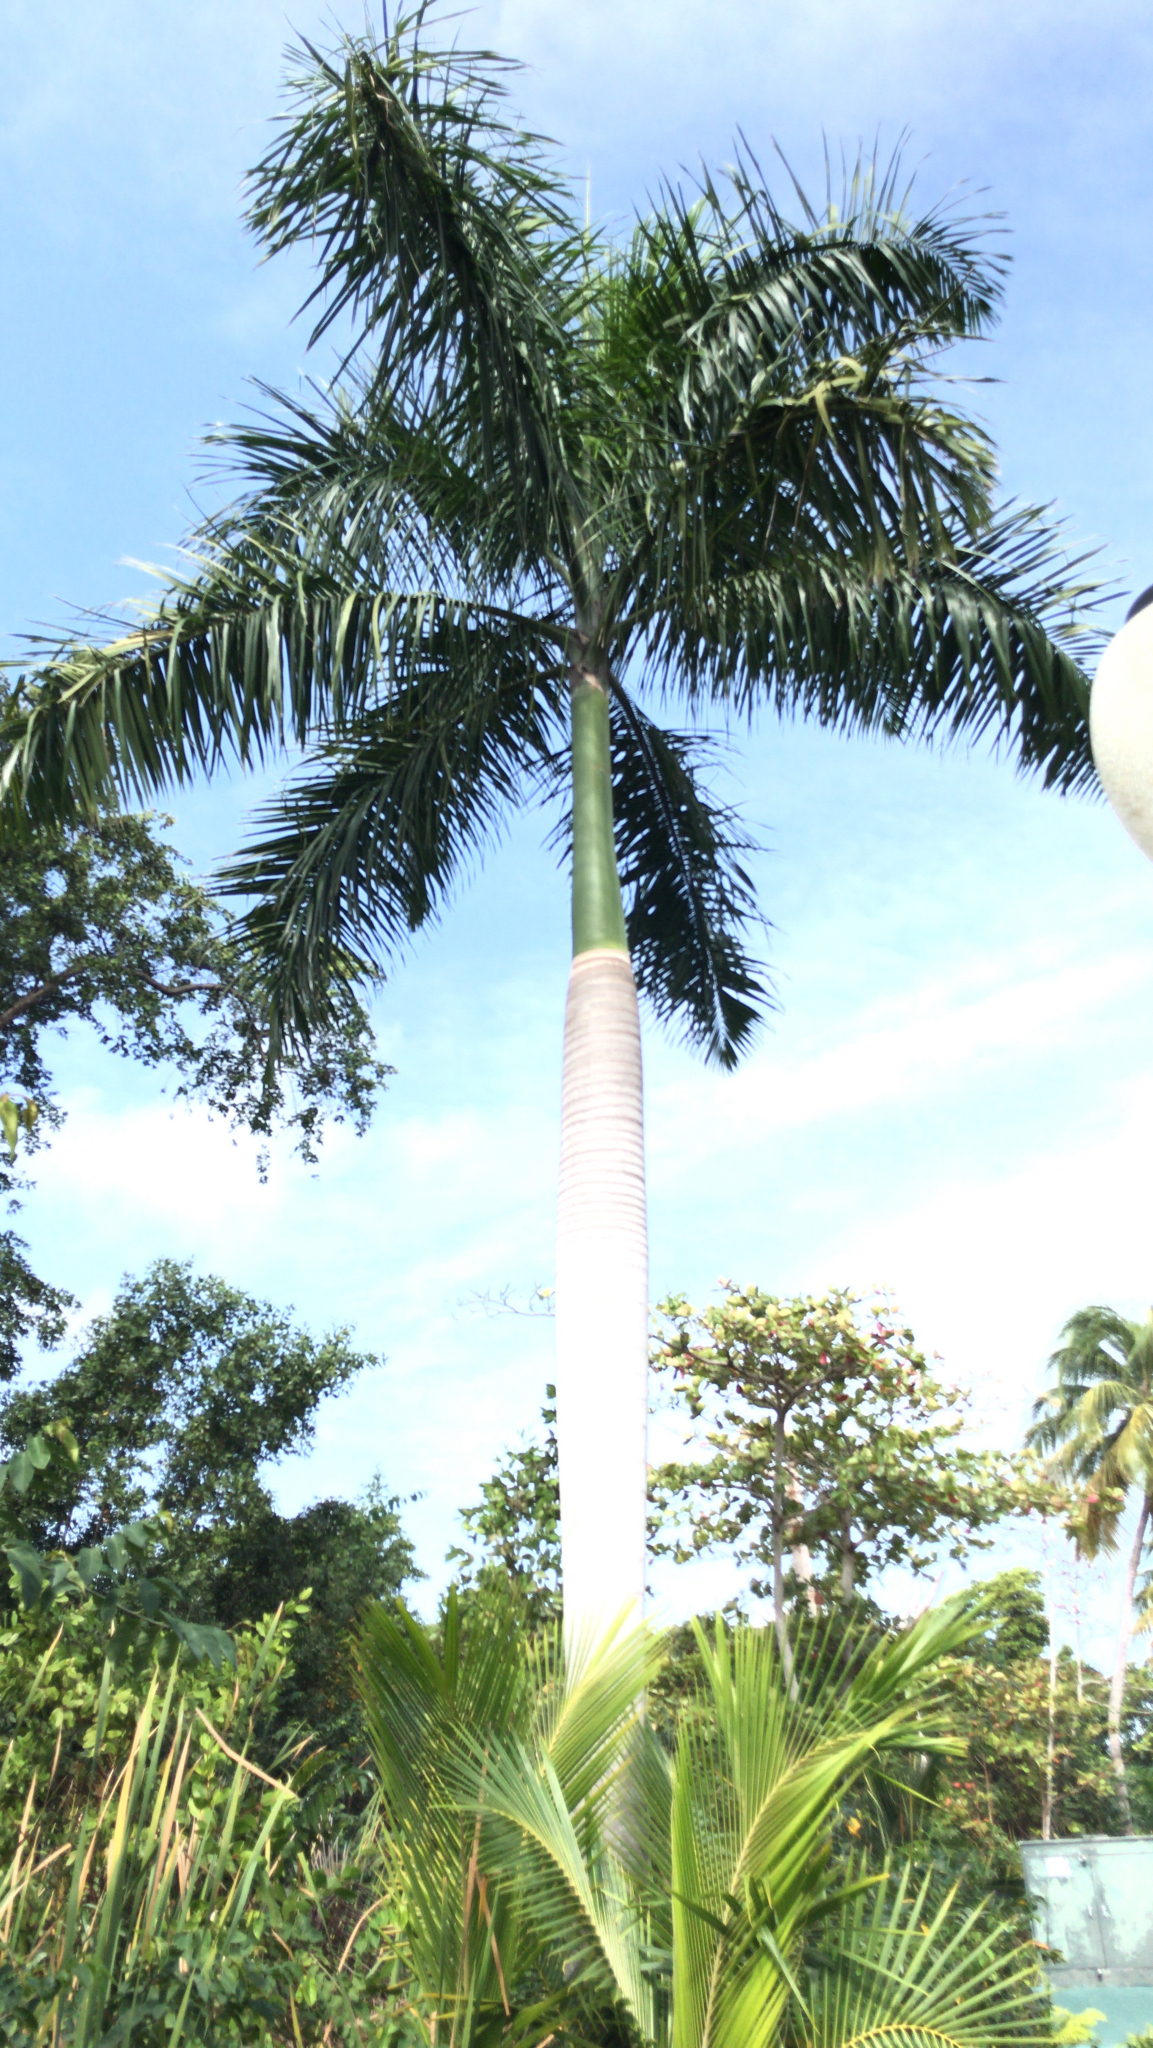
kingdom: Plantae
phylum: Tracheophyta
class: Liliopsida
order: Arecales
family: Arecaceae
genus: Roystonea
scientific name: Roystonea borinquena
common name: Puerto rican royal palm
